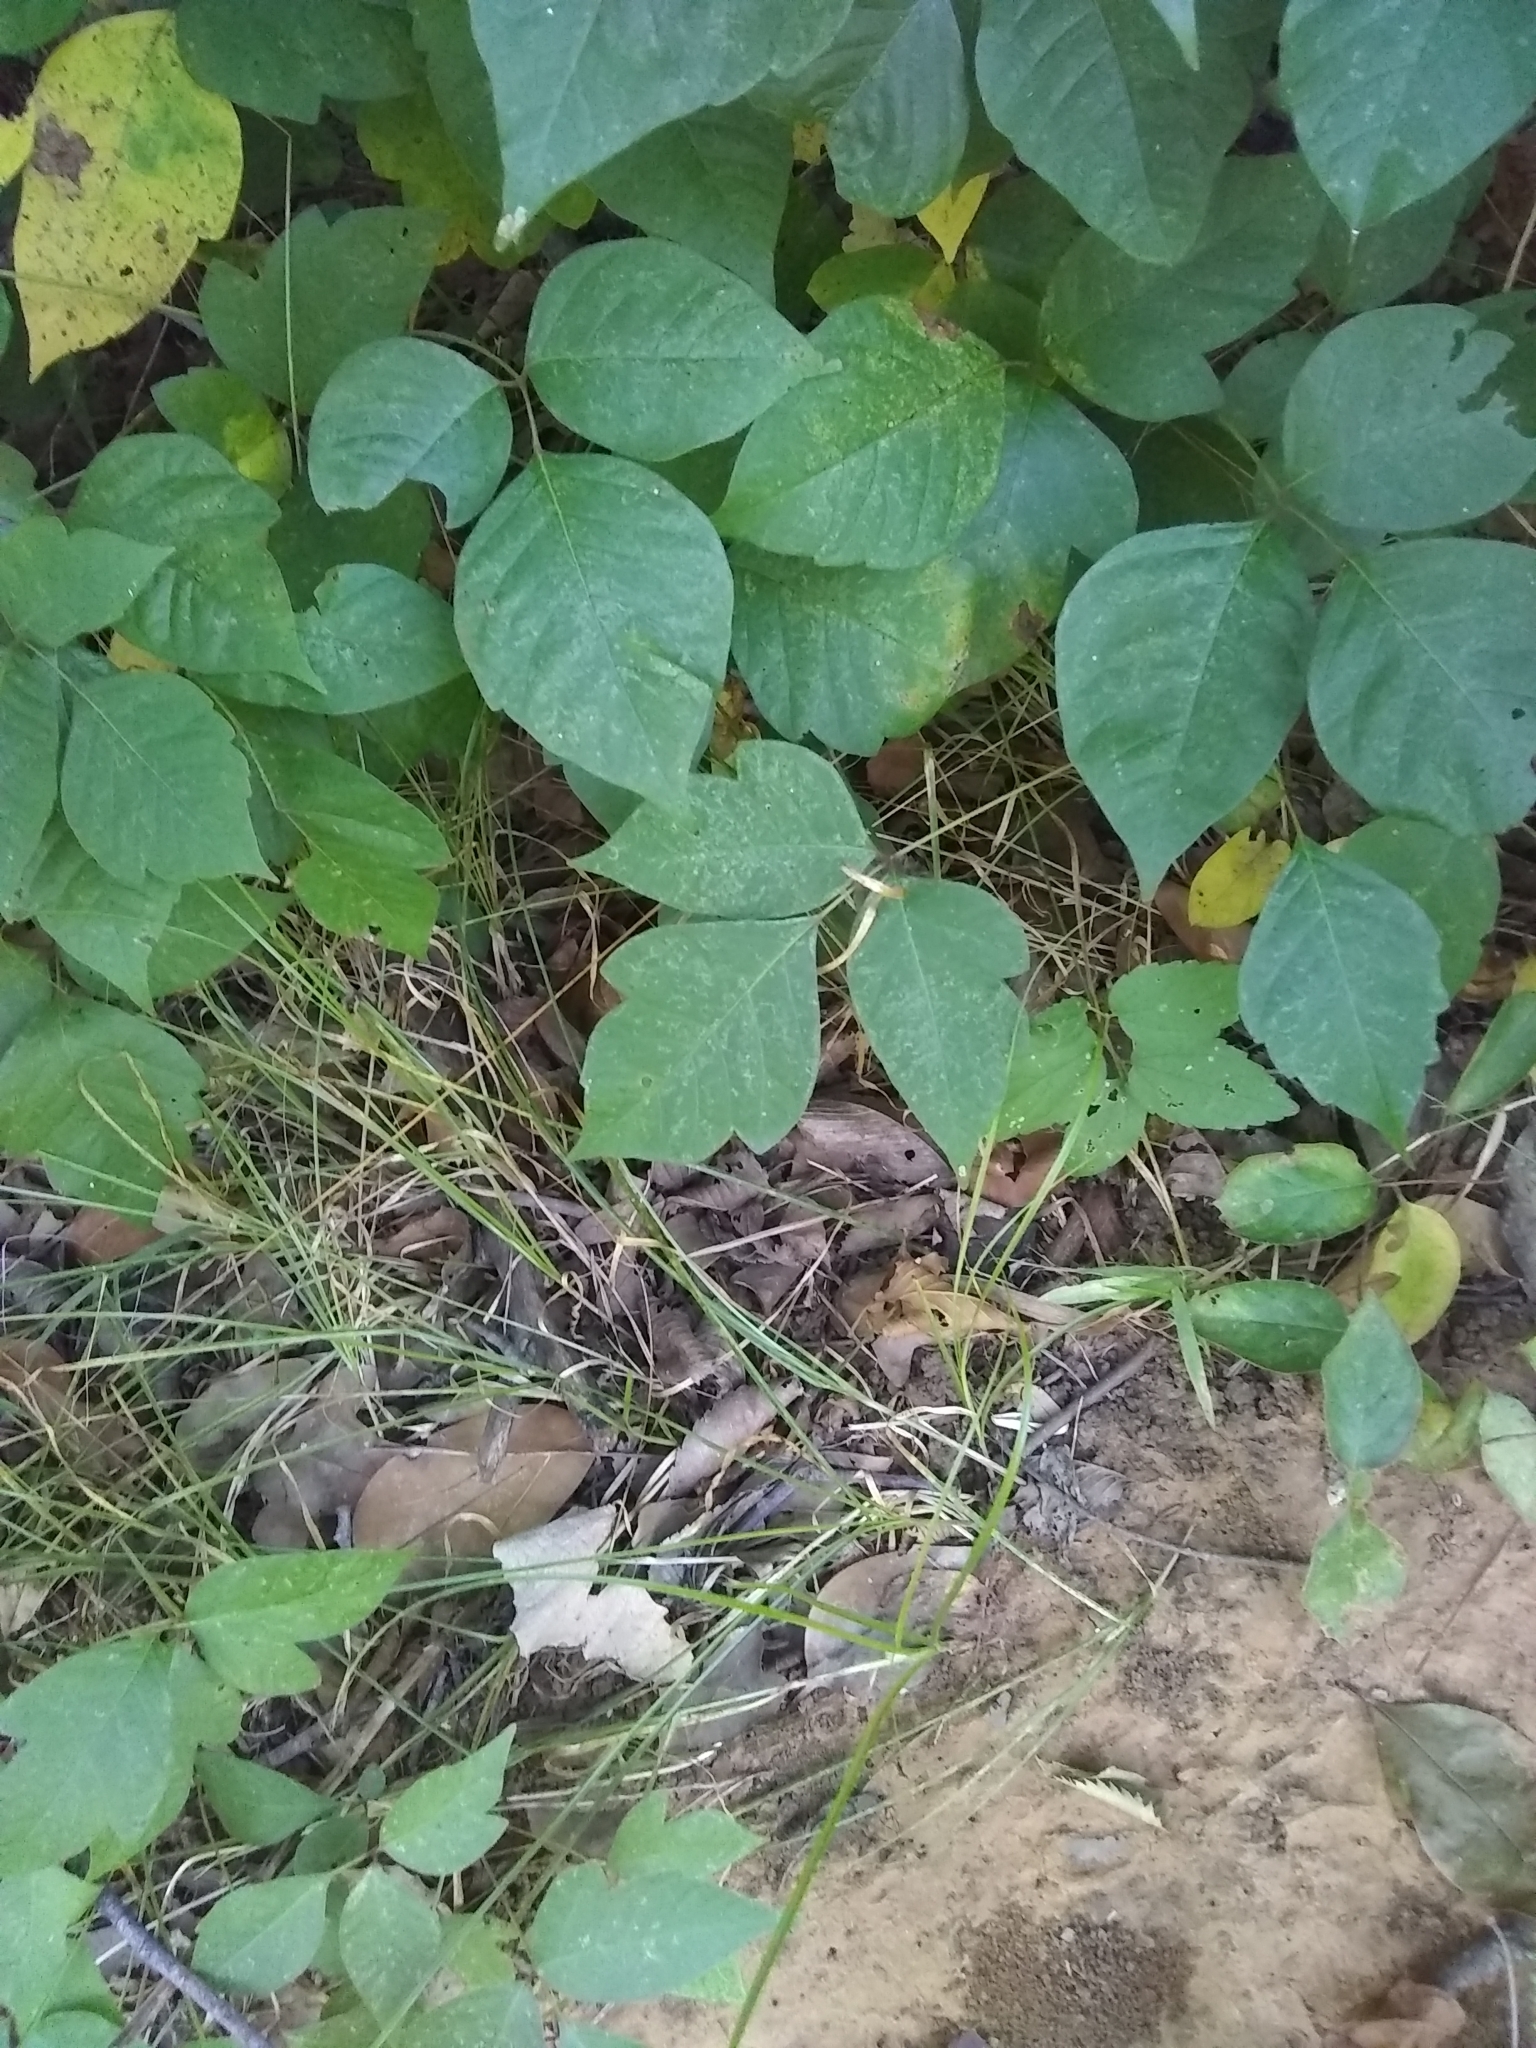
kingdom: Plantae
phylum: Tracheophyta
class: Magnoliopsida
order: Sapindales
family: Anacardiaceae
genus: Toxicodendron
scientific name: Toxicodendron radicans
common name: Poison ivy
